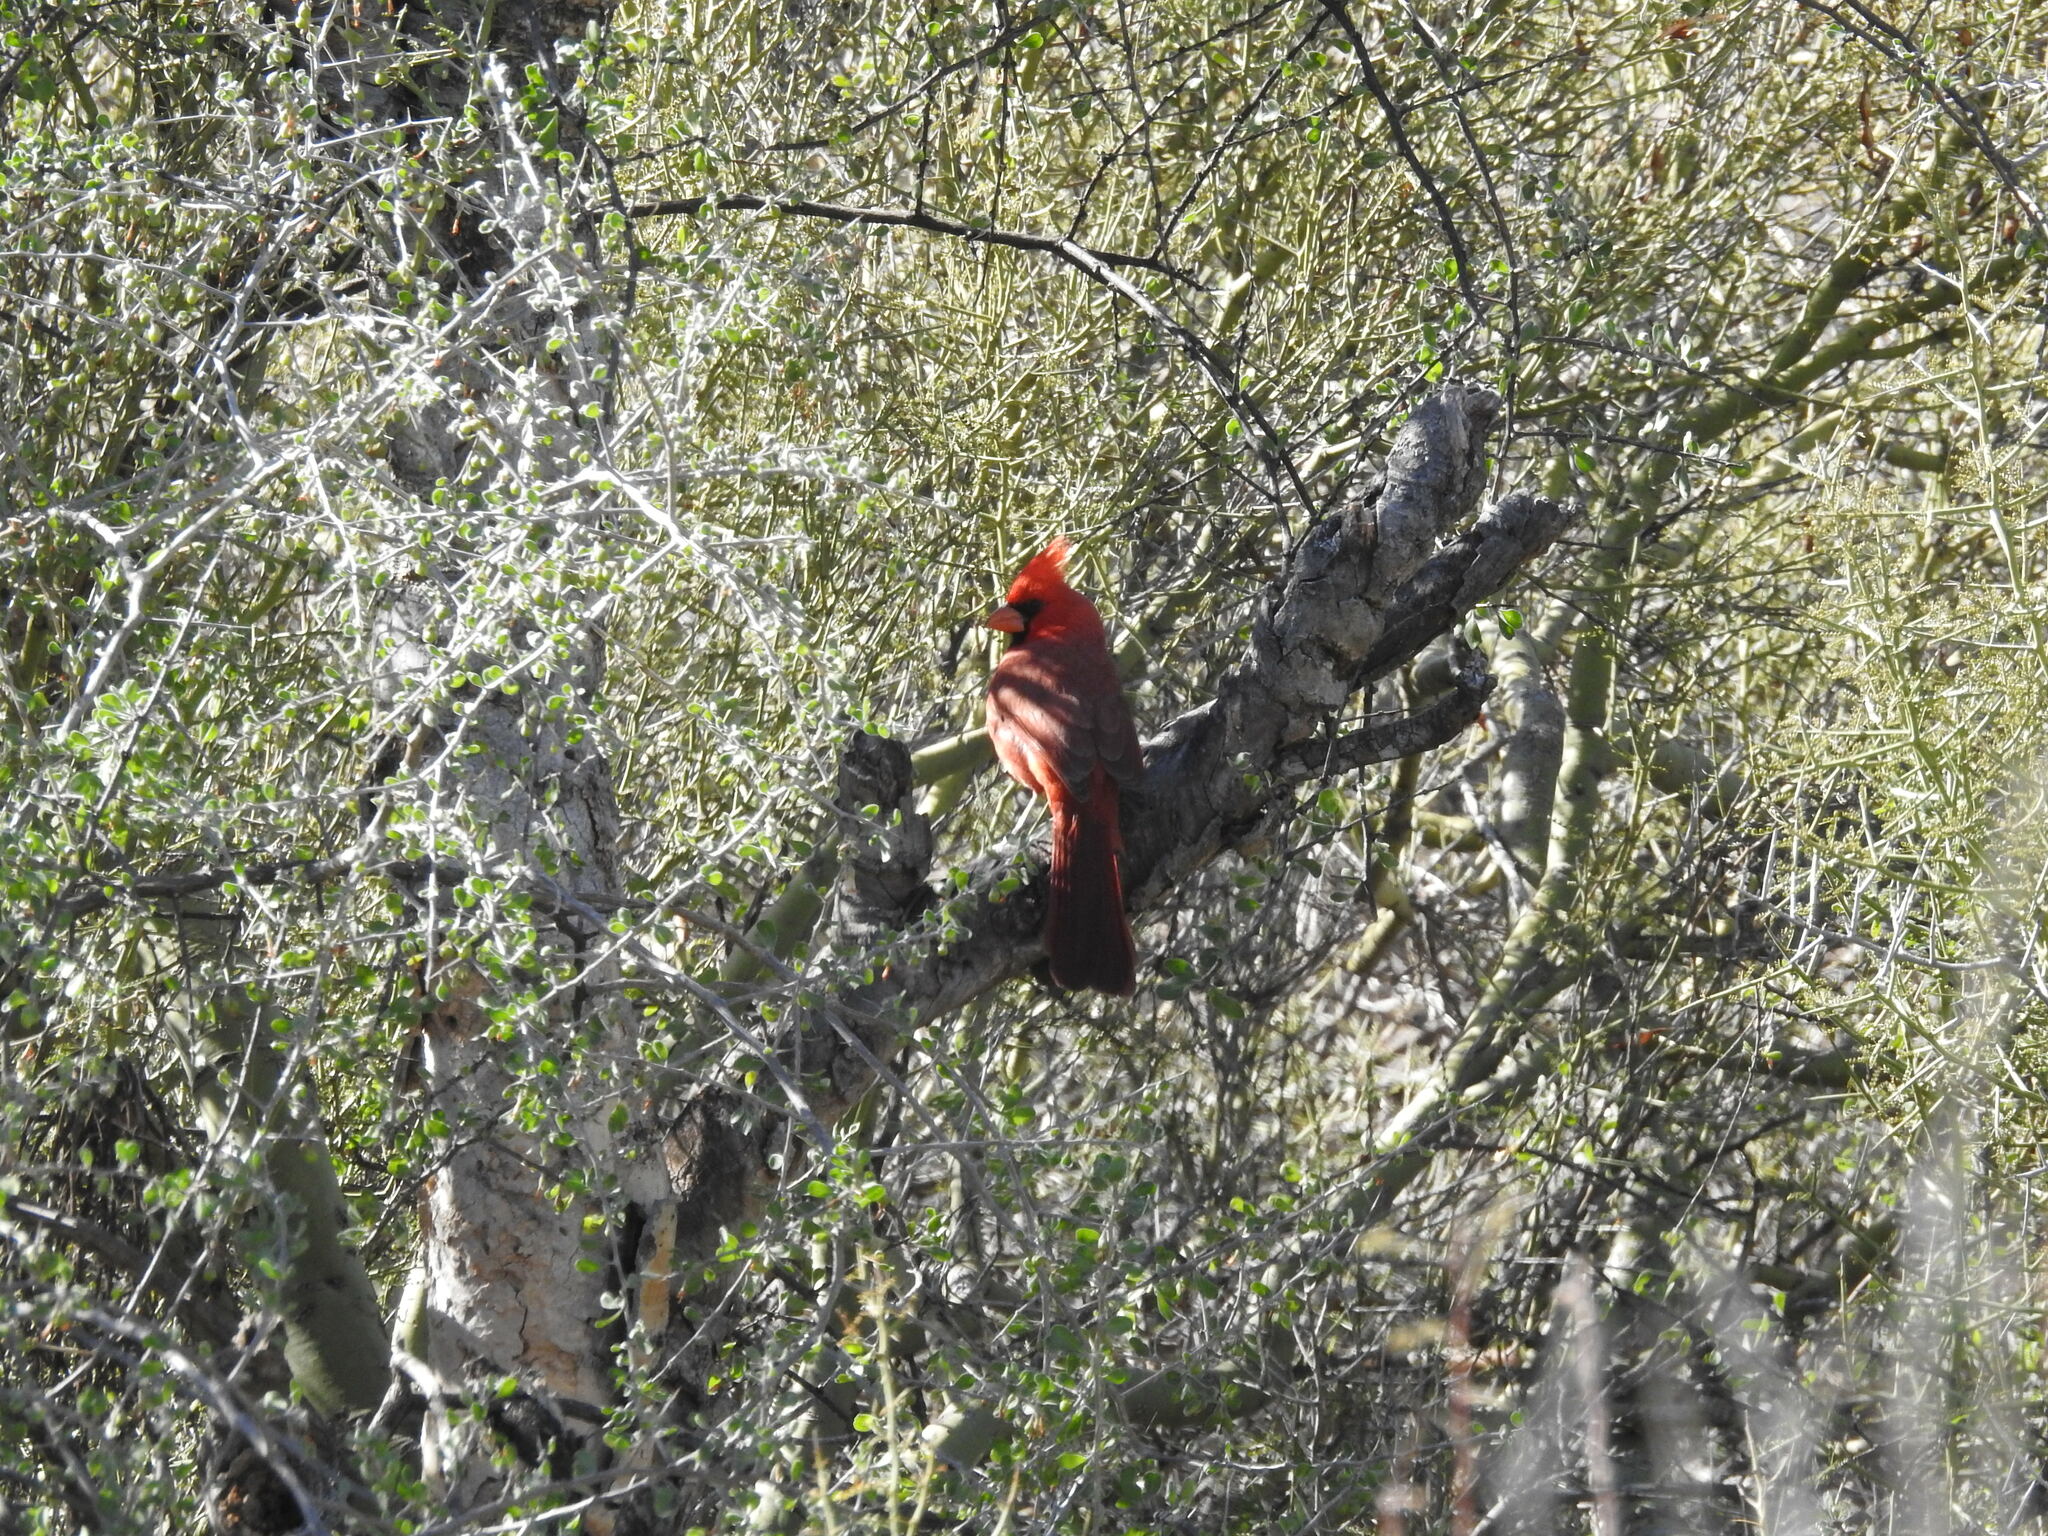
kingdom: Animalia
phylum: Chordata
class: Aves
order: Passeriformes
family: Cardinalidae
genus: Cardinalis
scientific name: Cardinalis cardinalis
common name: Northern cardinal
